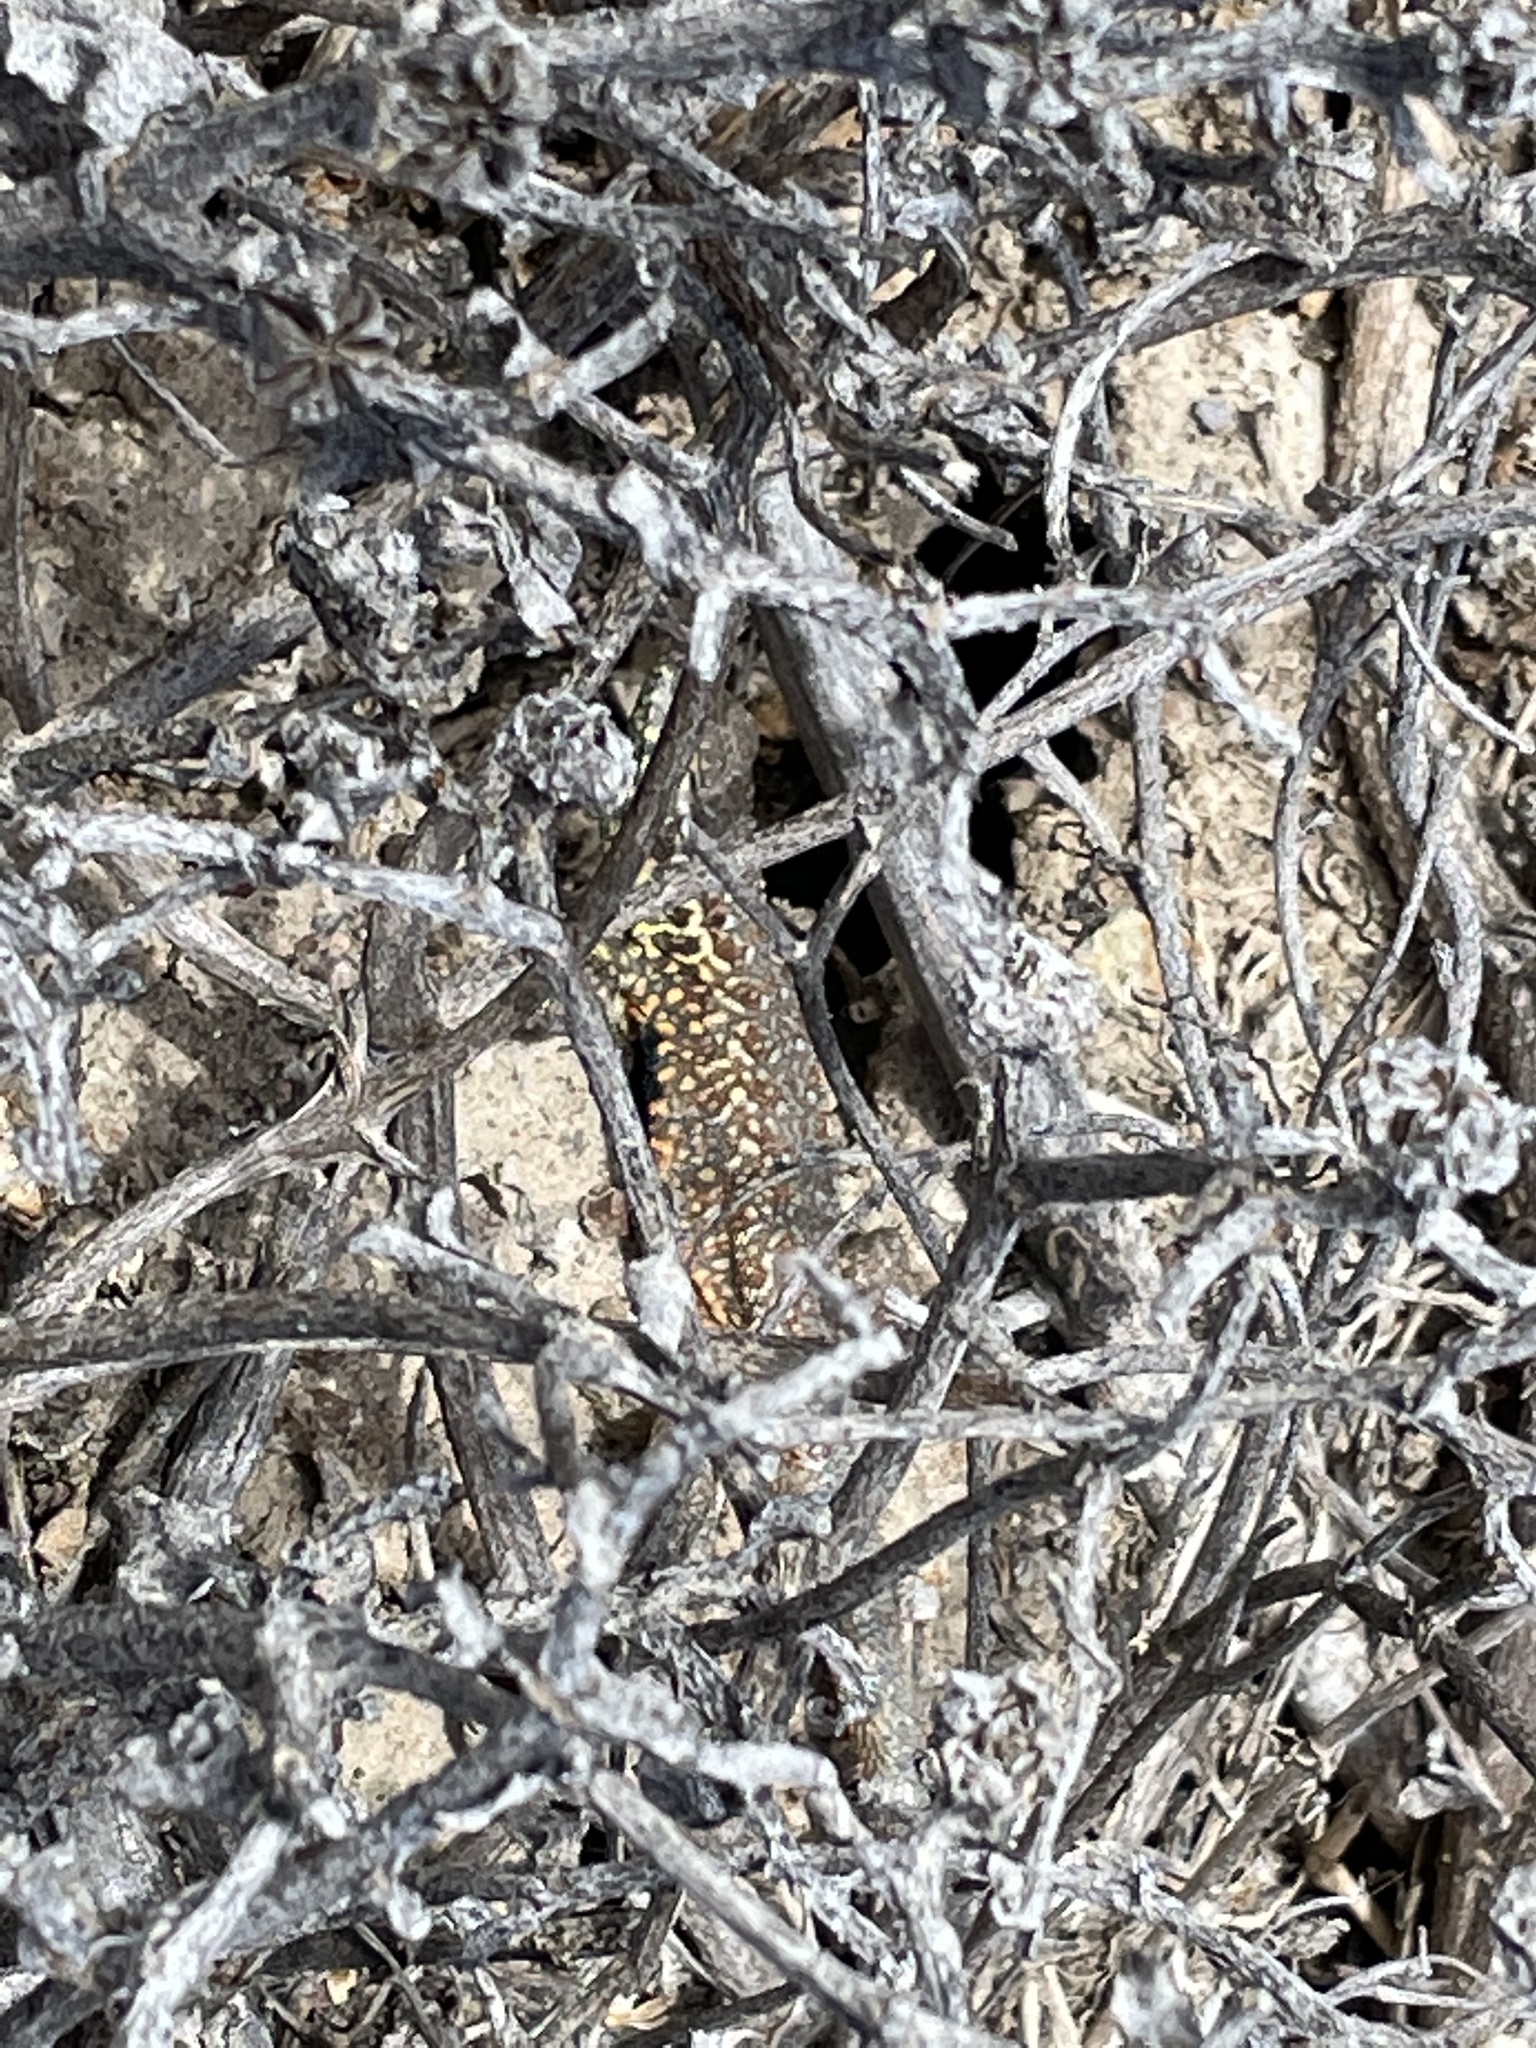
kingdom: Animalia
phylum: Chordata
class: Squamata
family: Phrynosomatidae
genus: Uta
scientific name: Uta stansburiana
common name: Side-blotched lizard
